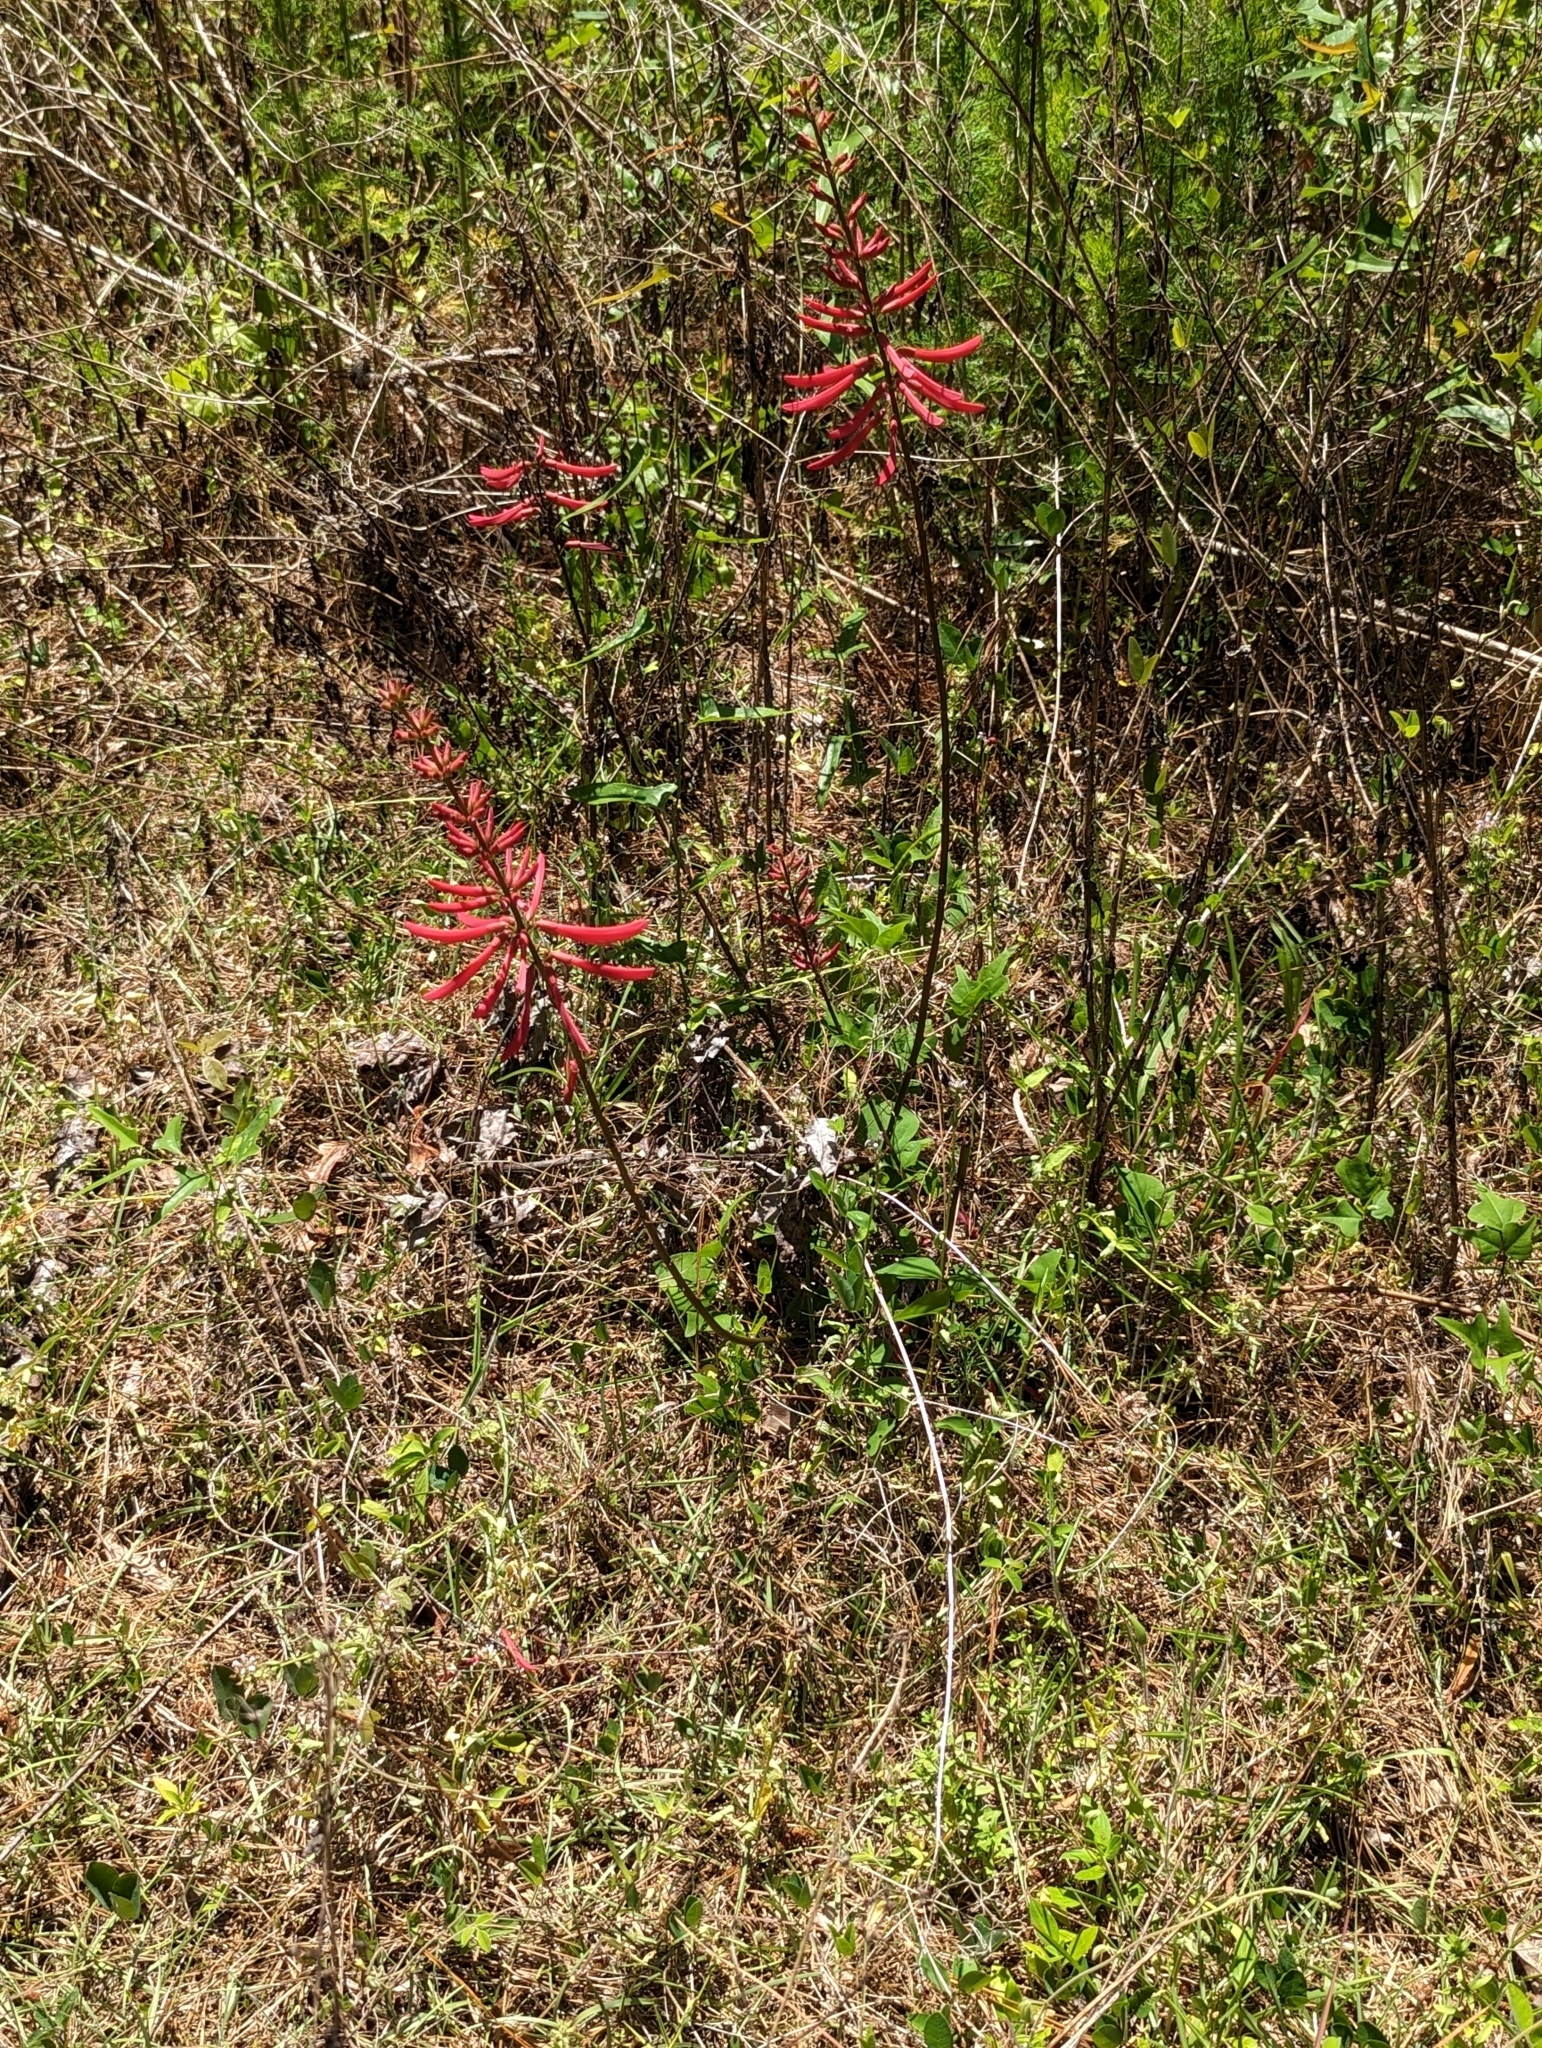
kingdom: Plantae
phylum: Tracheophyta
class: Magnoliopsida
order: Fabales
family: Fabaceae
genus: Erythrina
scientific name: Erythrina herbacea
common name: Coral-bean
